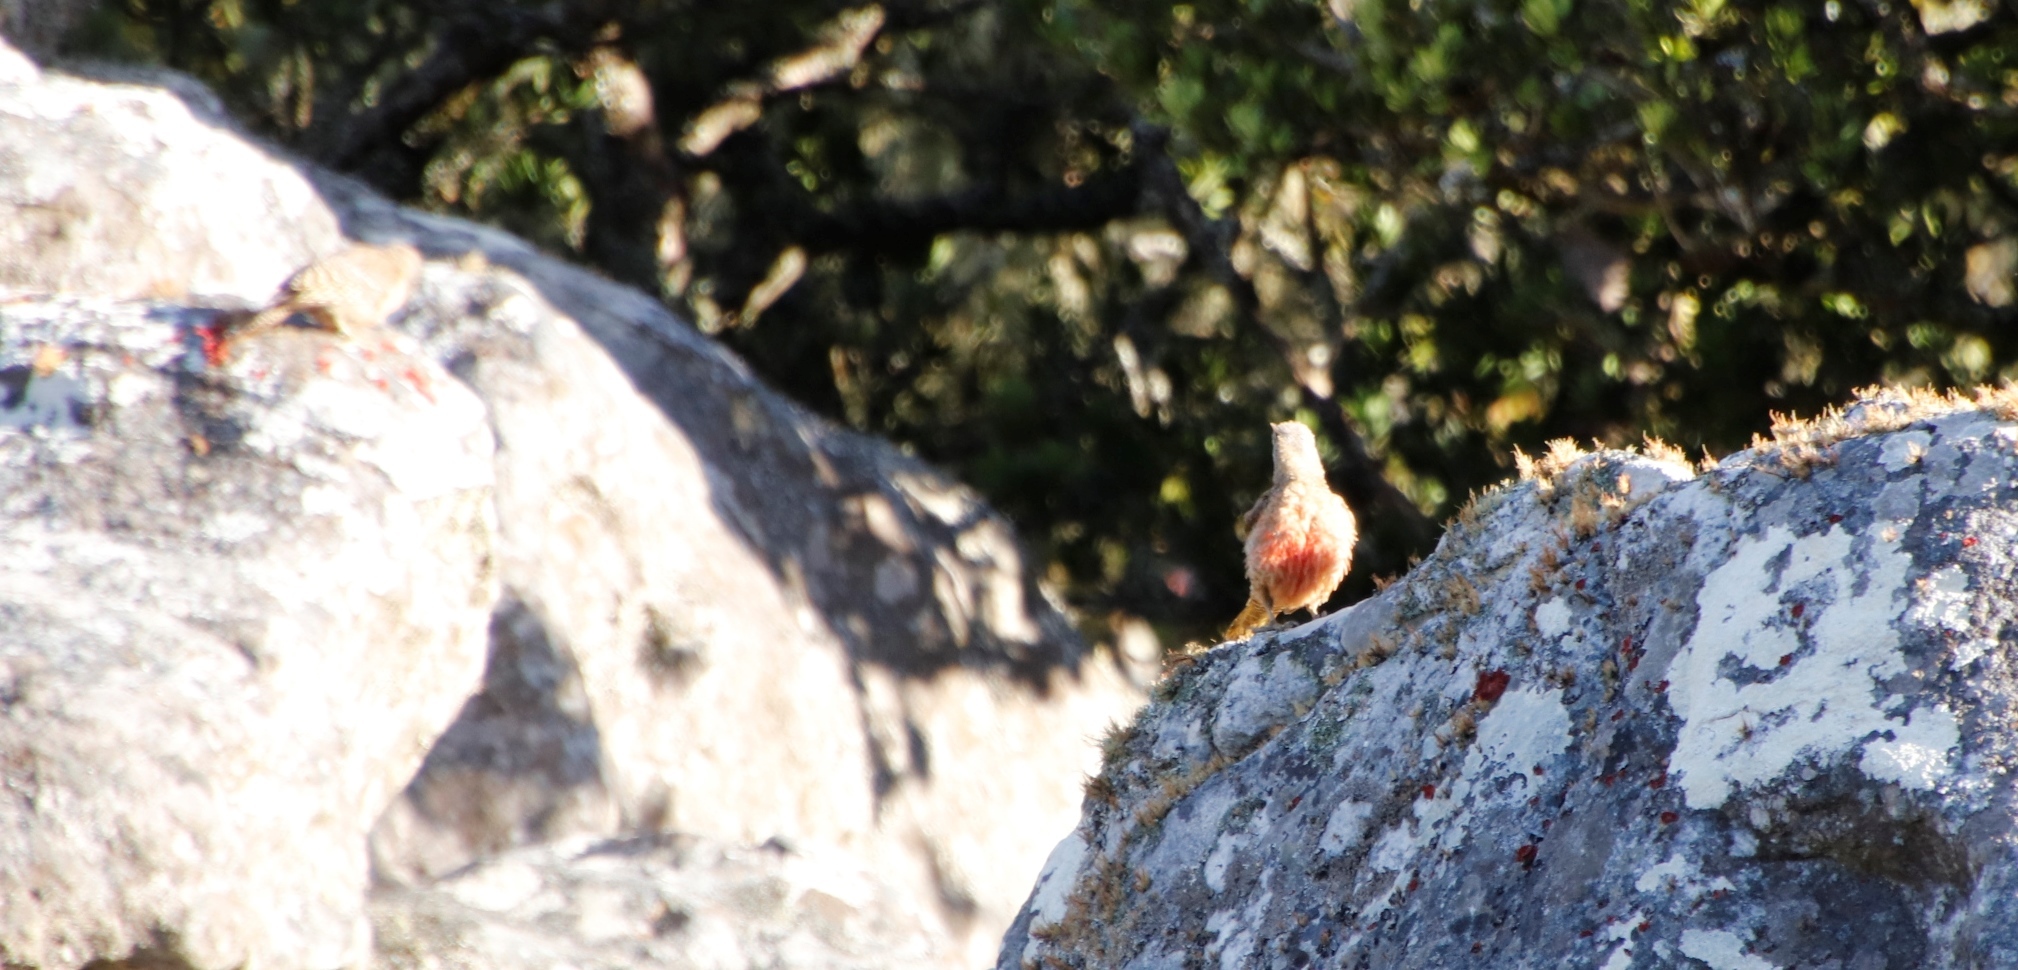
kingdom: Animalia
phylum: Chordata
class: Aves
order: Piciformes
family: Picidae
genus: Geocolaptes
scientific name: Geocolaptes olivaceus
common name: Ground woodpecker
